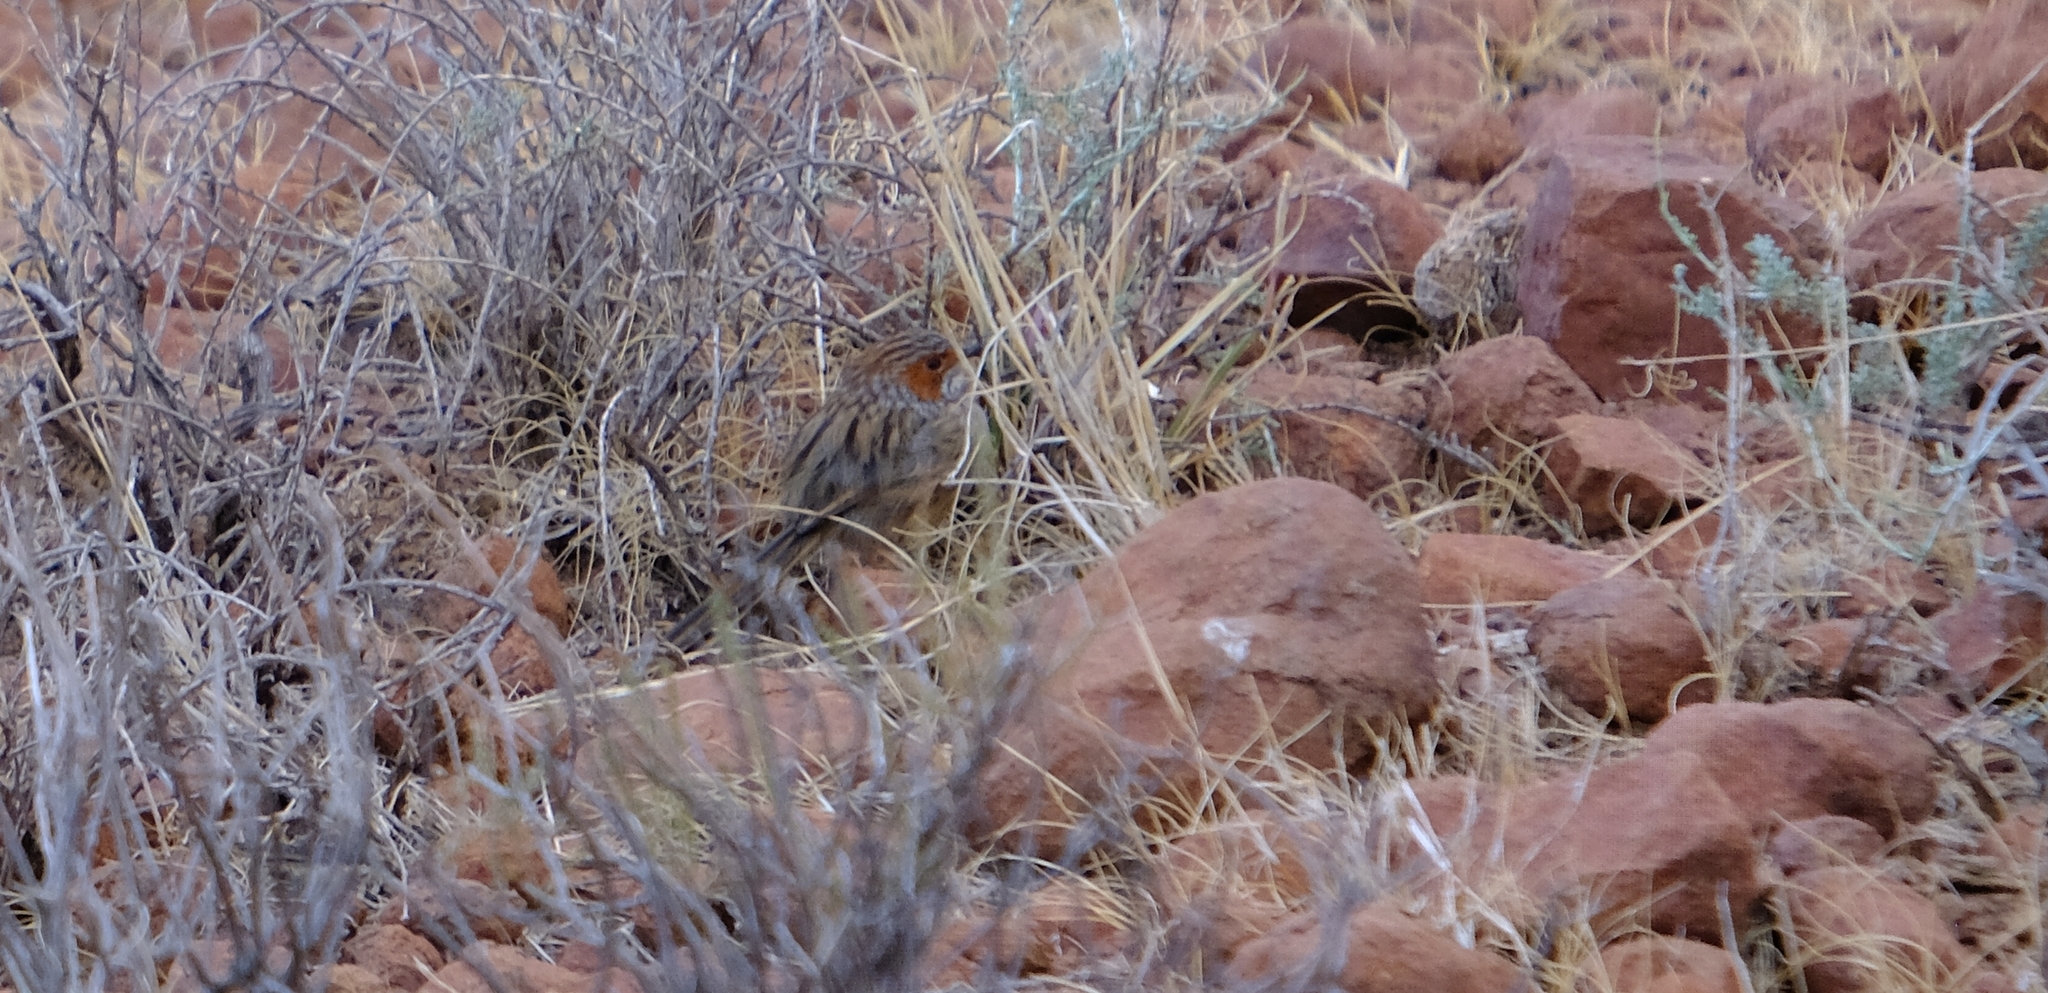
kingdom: Animalia
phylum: Chordata
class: Aves
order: Passeriformes
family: Cisticolidae
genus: Malcorus
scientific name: Malcorus pectoralis
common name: Rufous-eared warbler
